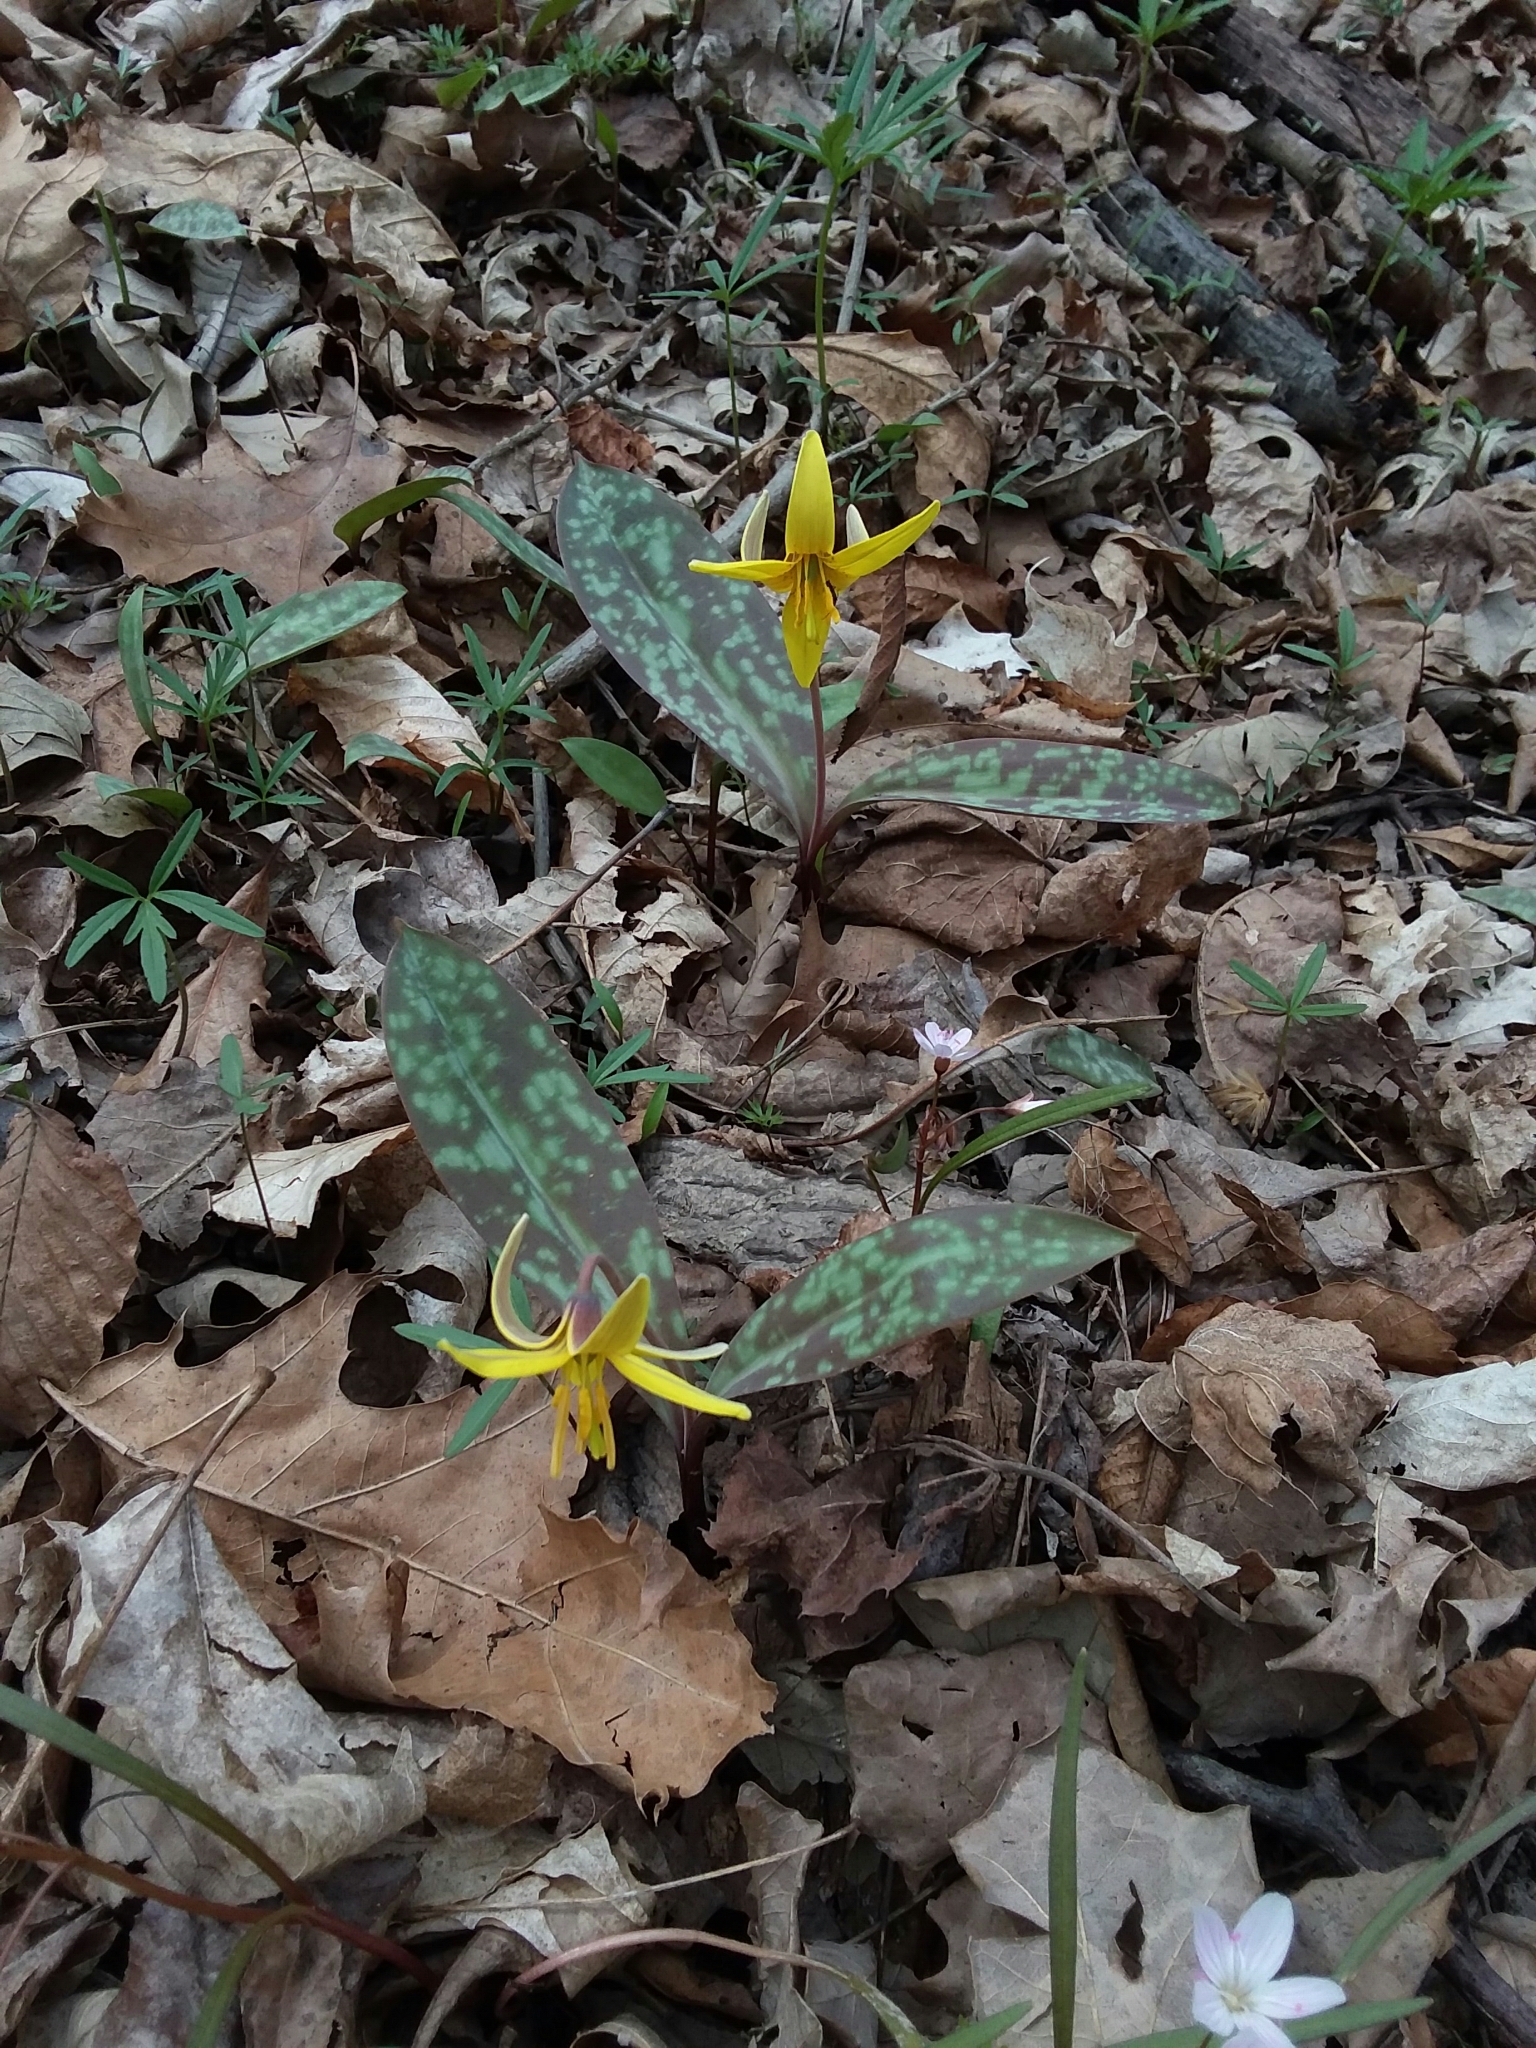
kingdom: Plantae
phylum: Tracheophyta
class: Liliopsida
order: Liliales
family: Liliaceae
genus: Erythronium
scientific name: Erythronium americanum
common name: Yellow adder's-tongue
